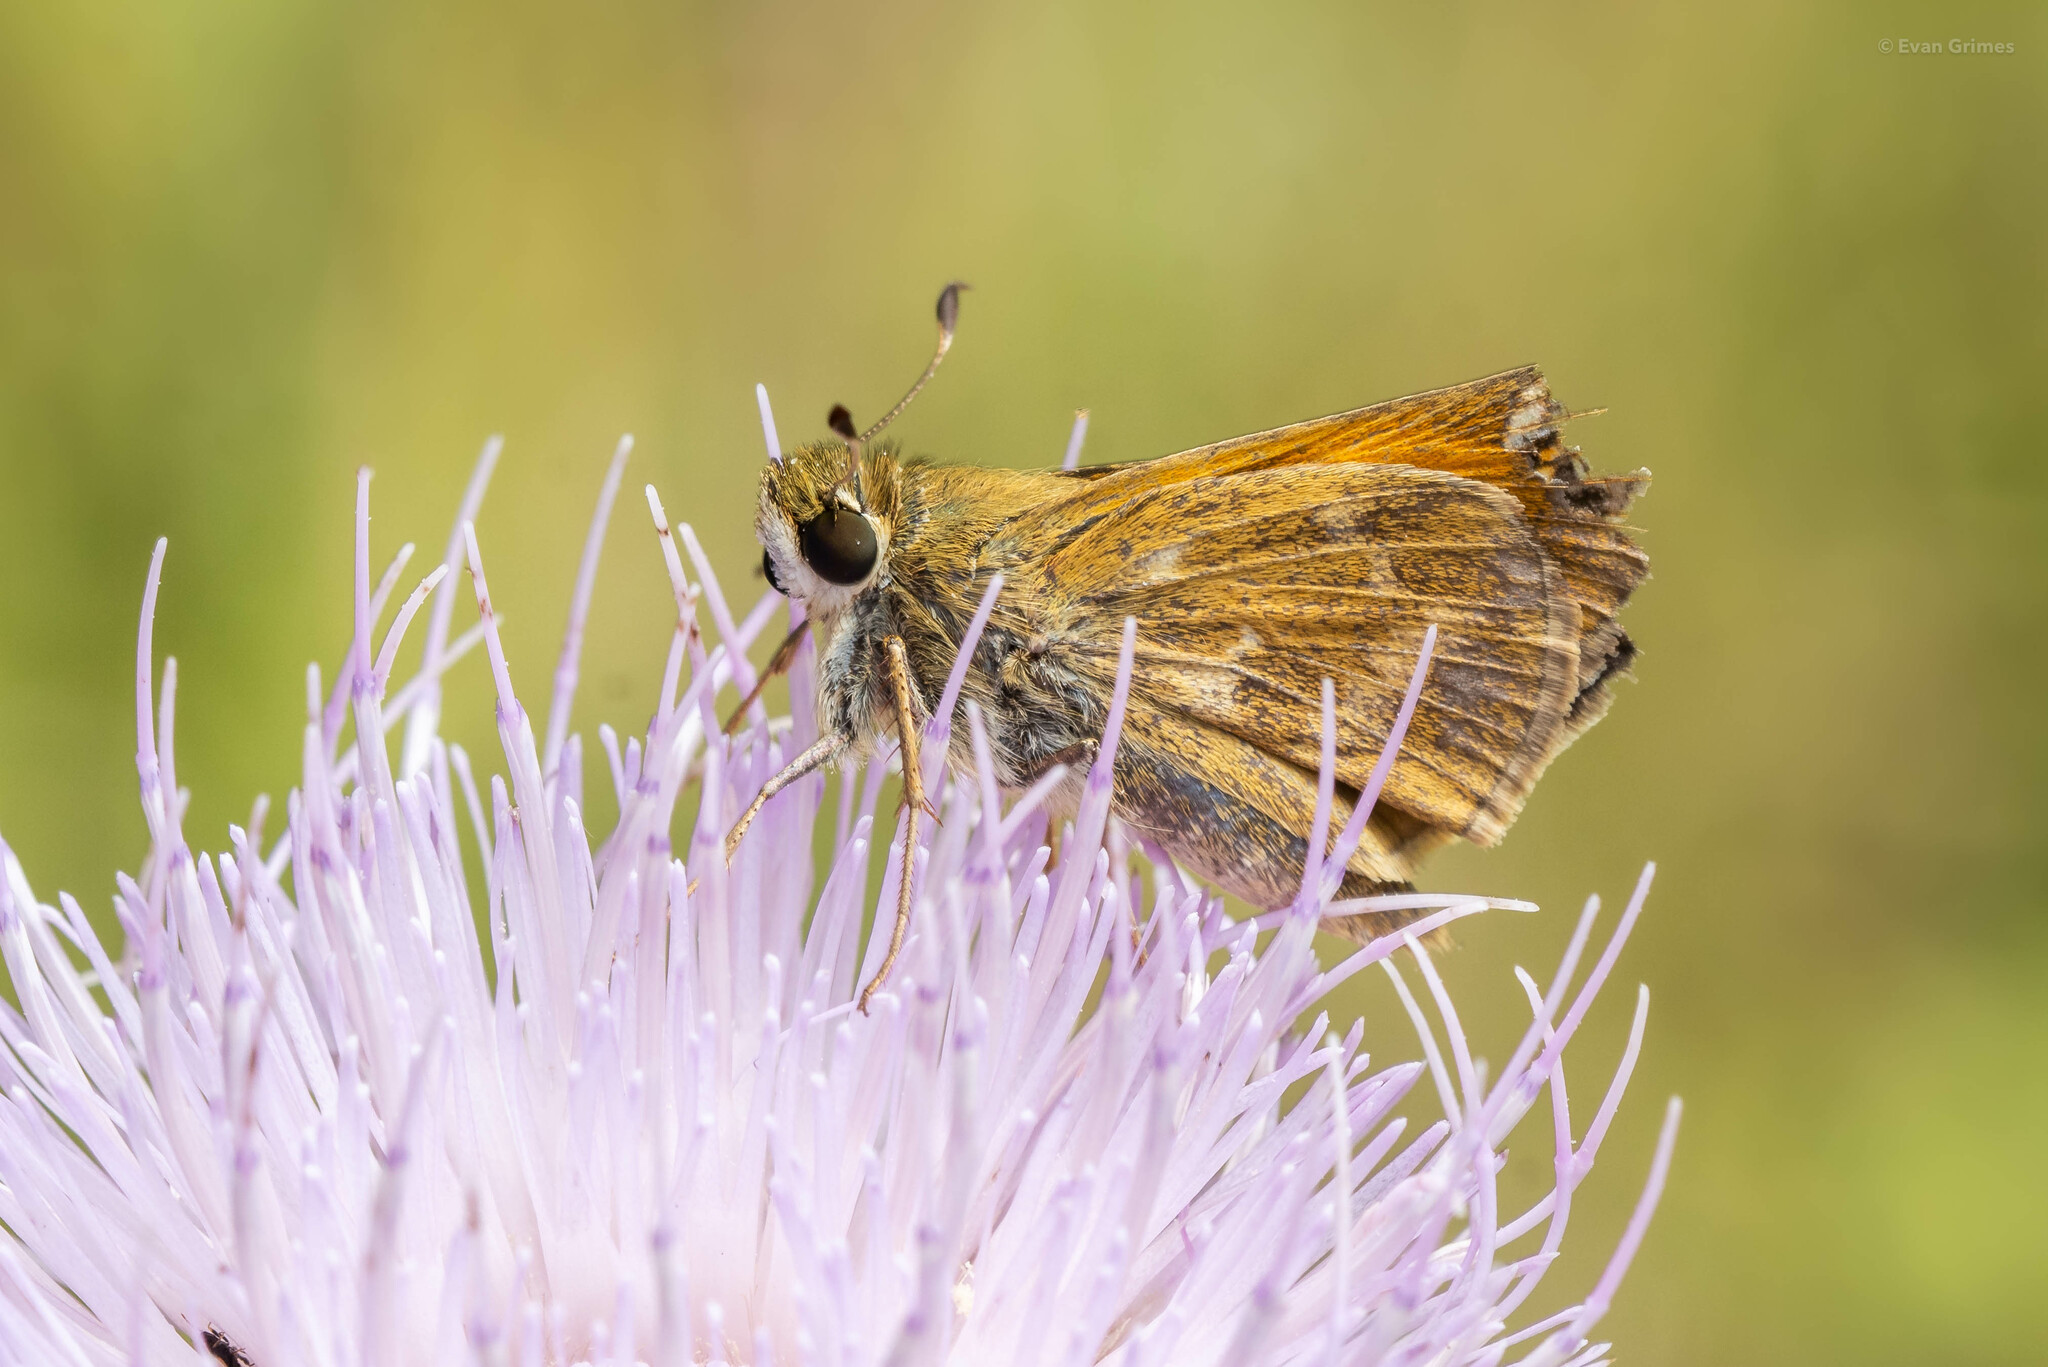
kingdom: Animalia
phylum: Arthropoda
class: Insecta
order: Lepidoptera
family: Hesperiidae
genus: Atalopedes
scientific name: Atalopedes
